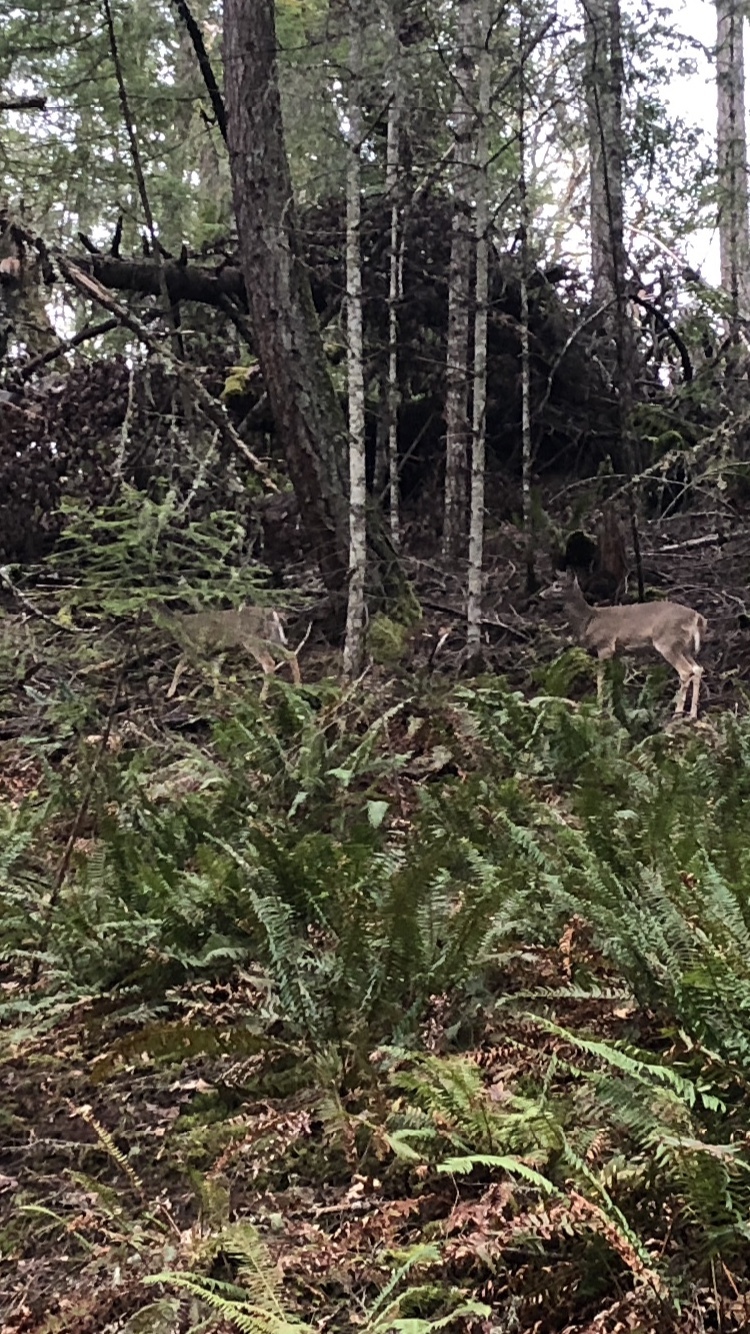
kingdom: Animalia
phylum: Chordata
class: Mammalia
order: Artiodactyla
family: Cervidae
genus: Odocoileus
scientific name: Odocoileus virginianus
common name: White-tailed deer
